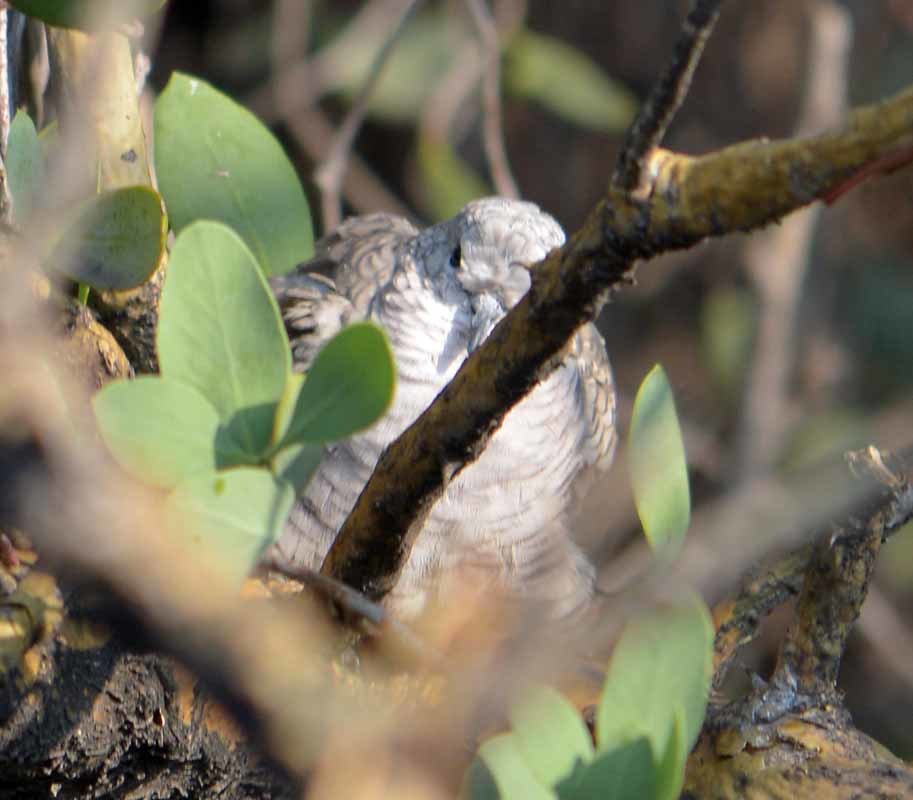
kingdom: Animalia
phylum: Chordata
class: Aves
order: Columbiformes
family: Columbidae
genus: Columbina
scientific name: Columbina inca
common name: Inca dove
